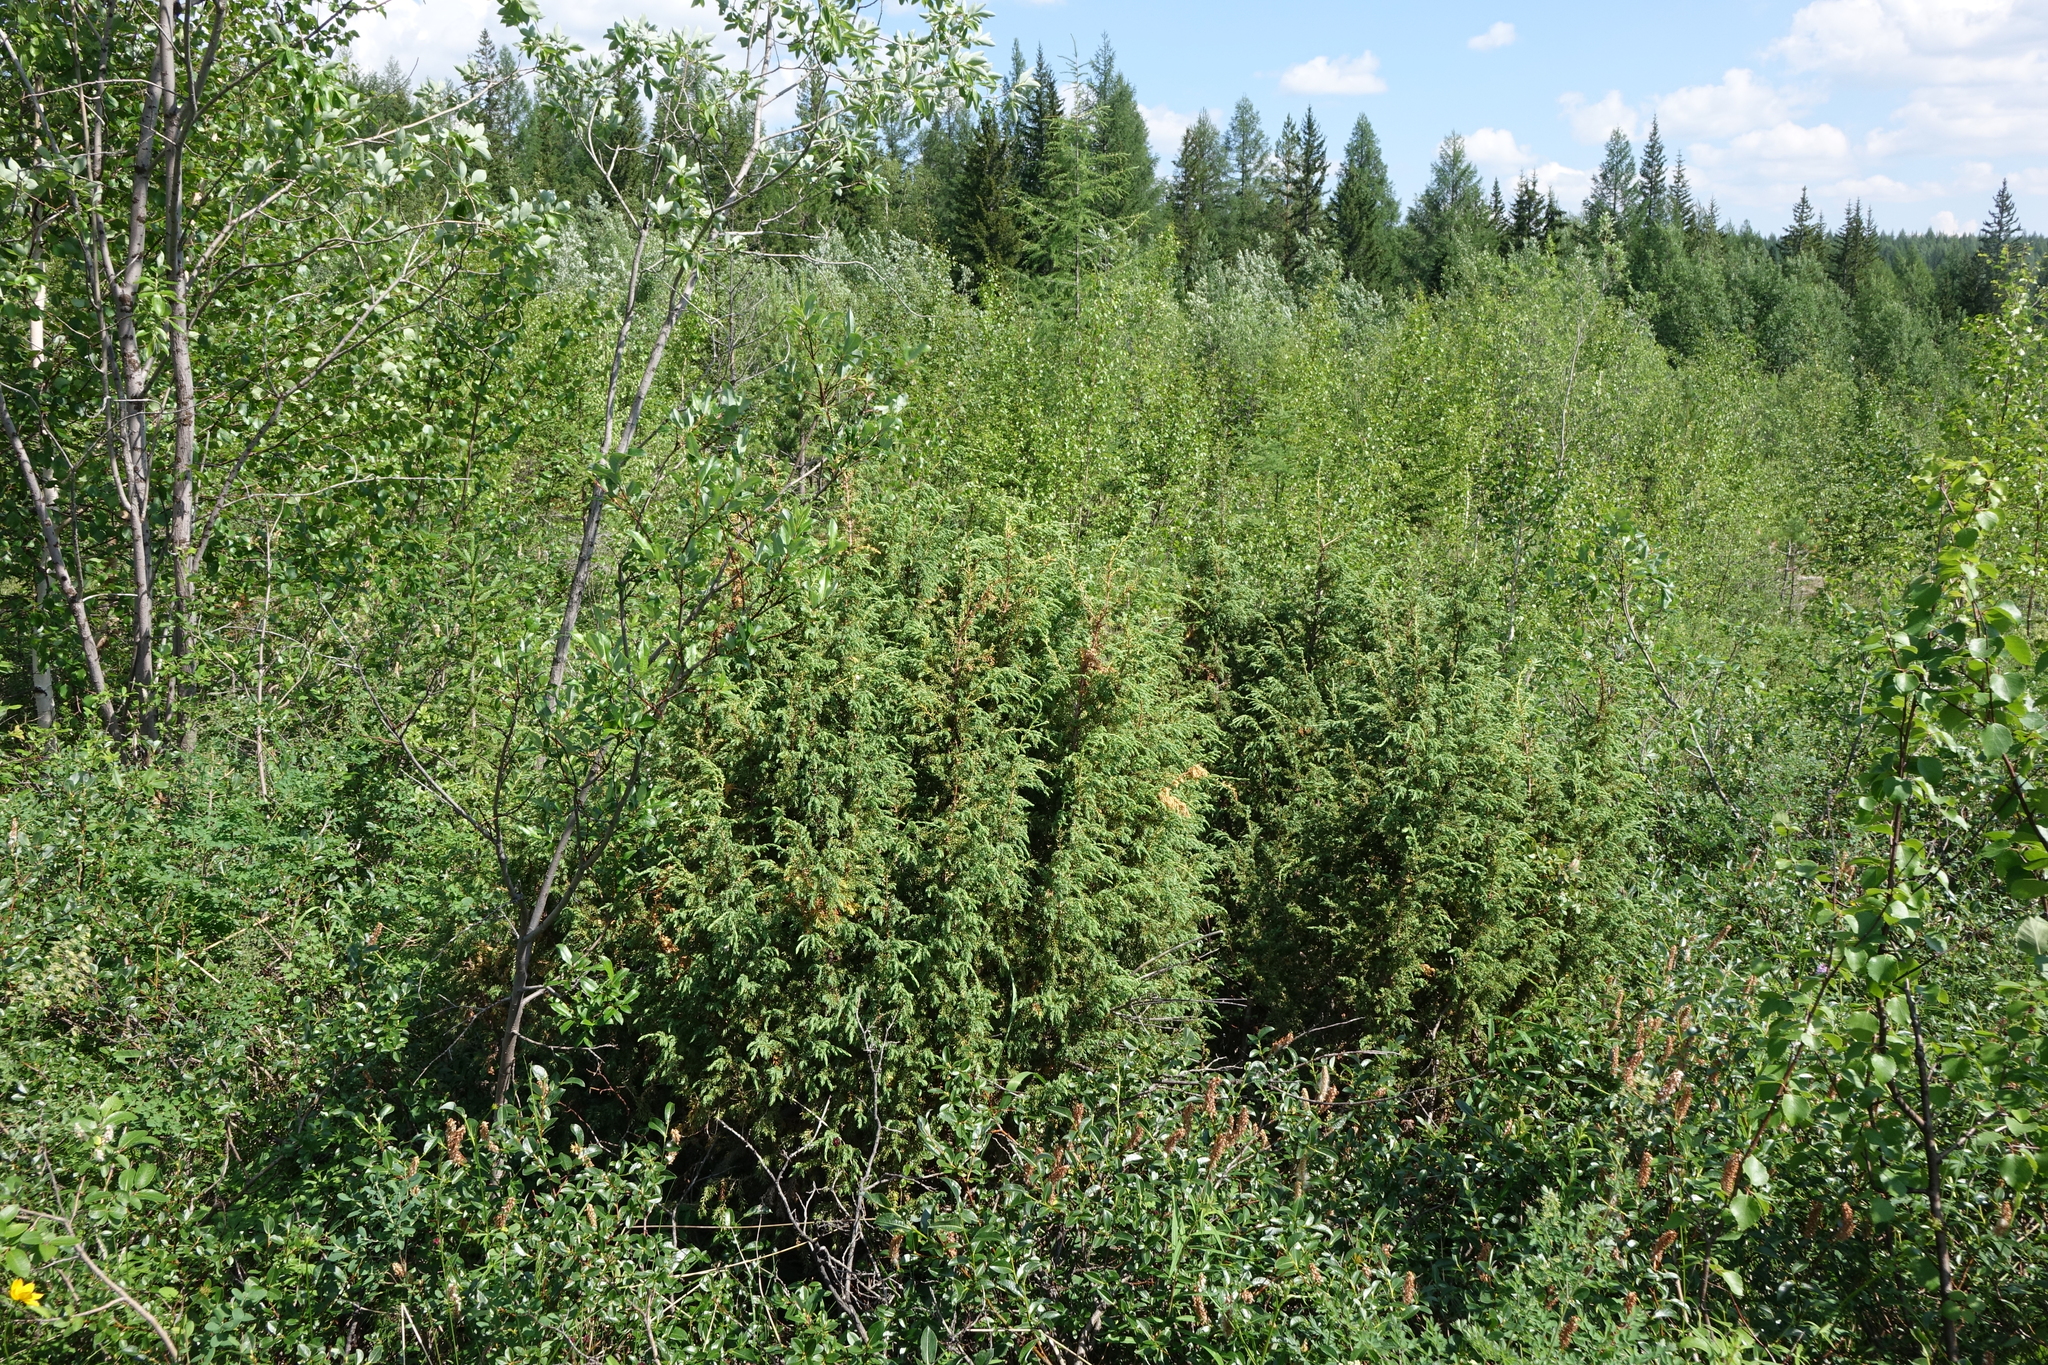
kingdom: Plantae
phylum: Tracheophyta
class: Pinopsida
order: Pinales
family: Cupressaceae
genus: Juniperus
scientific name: Juniperus communis
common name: Common juniper
